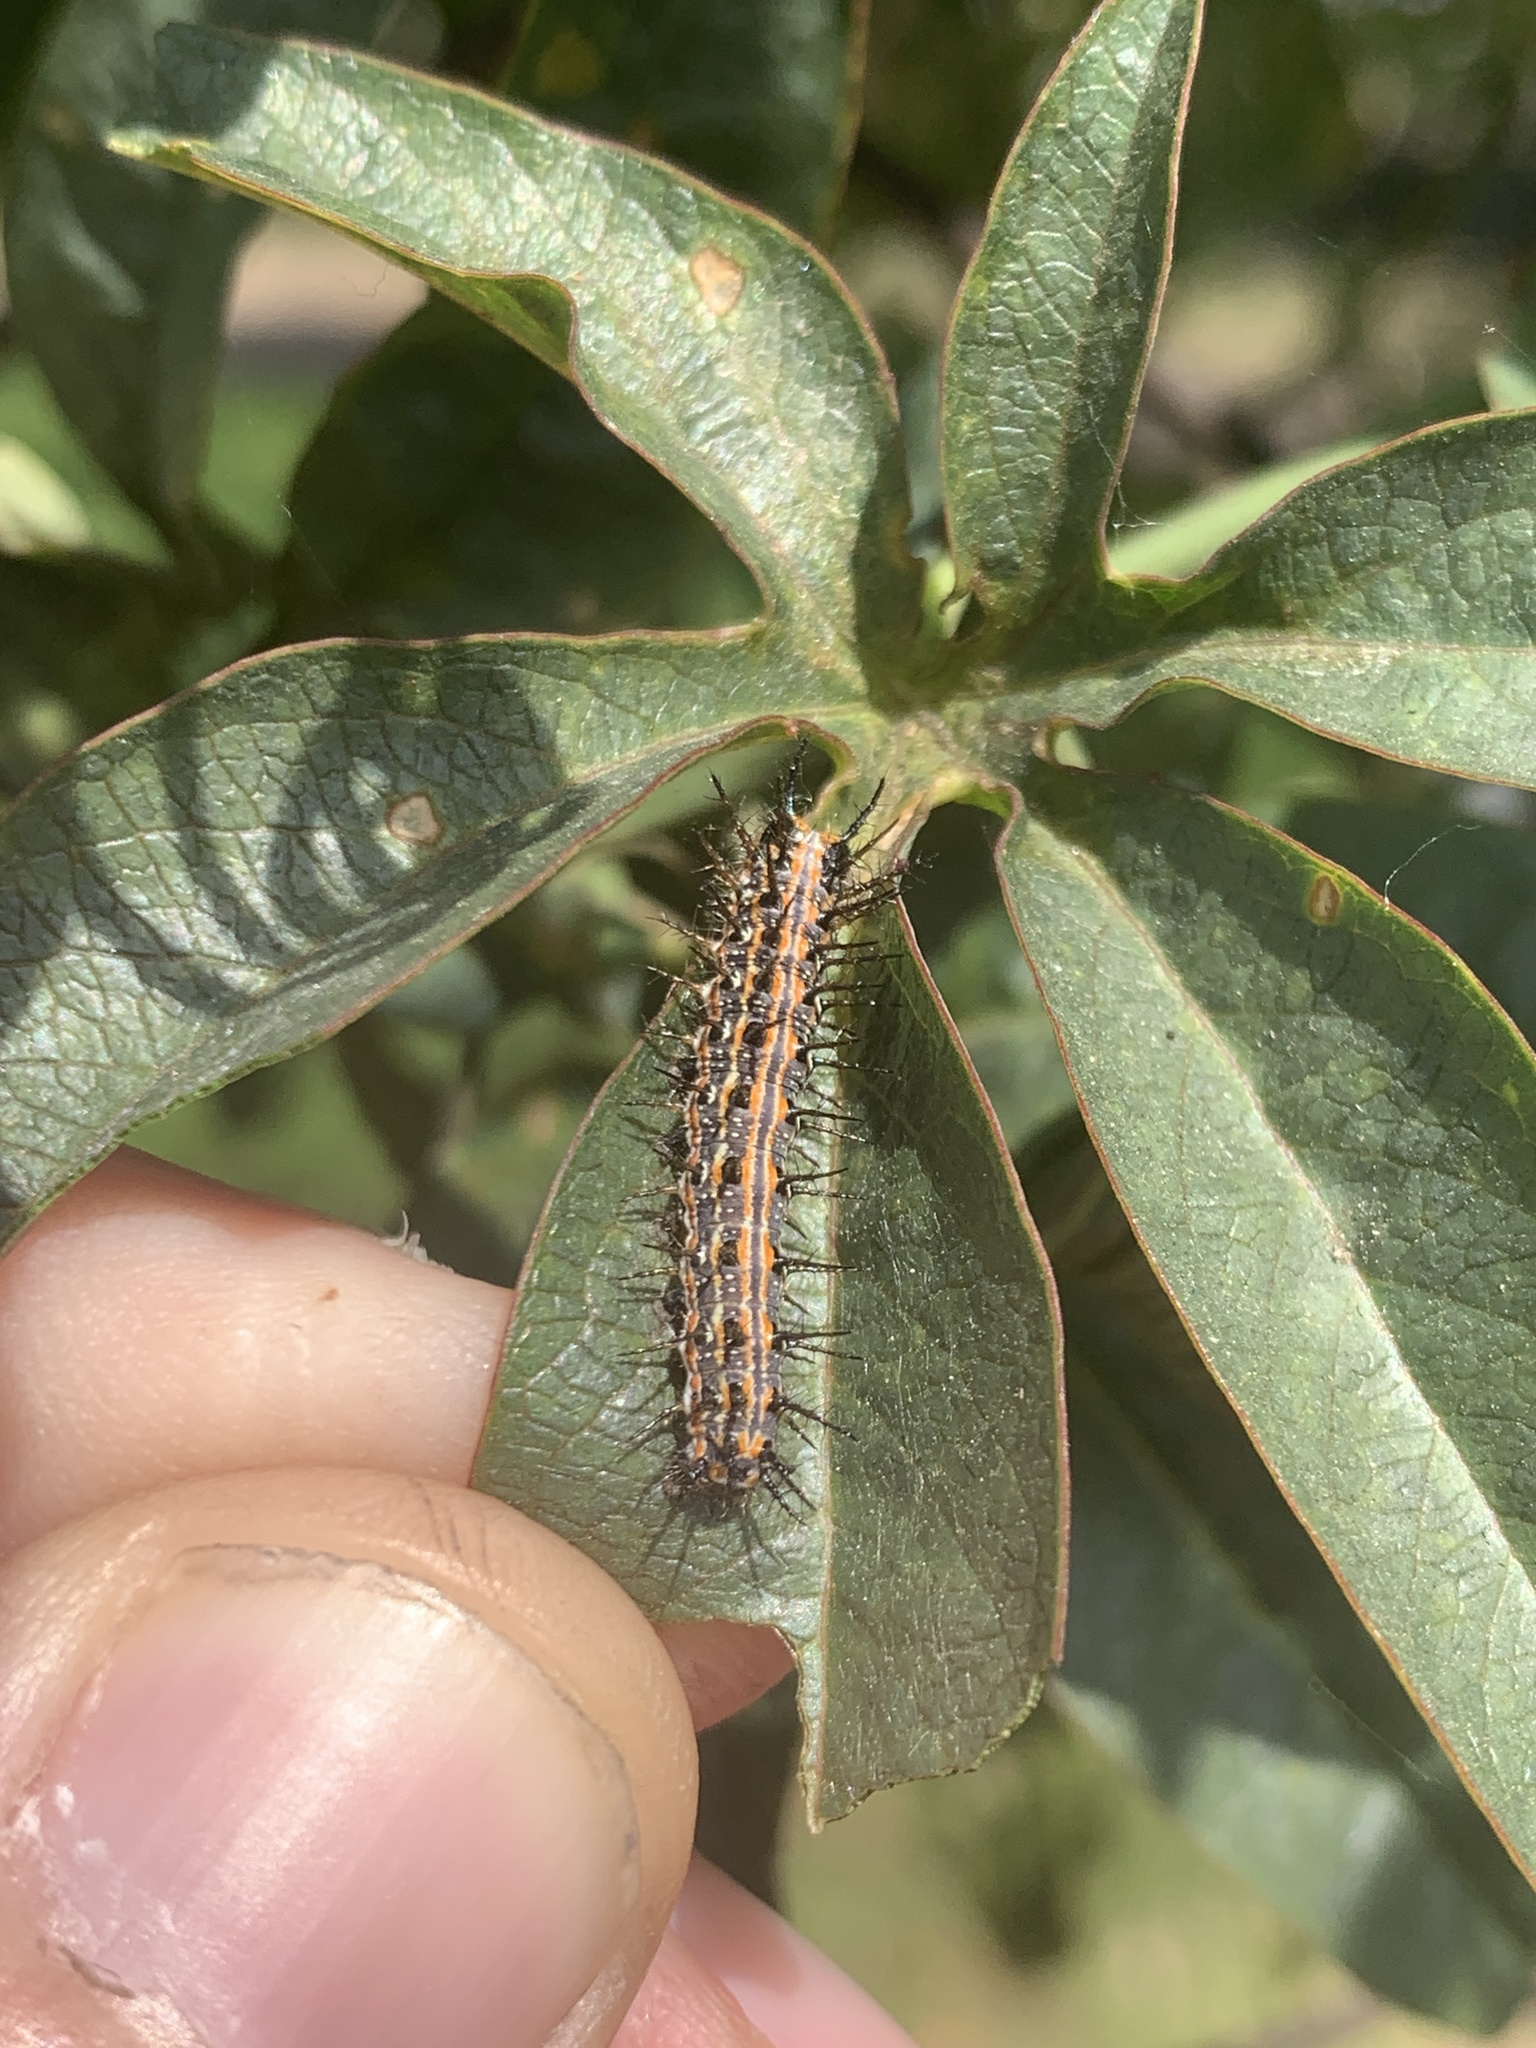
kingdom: Animalia
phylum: Arthropoda
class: Insecta
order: Lepidoptera
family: Nymphalidae
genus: Dione
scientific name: Dione vanillae
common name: Gulf fritillary
